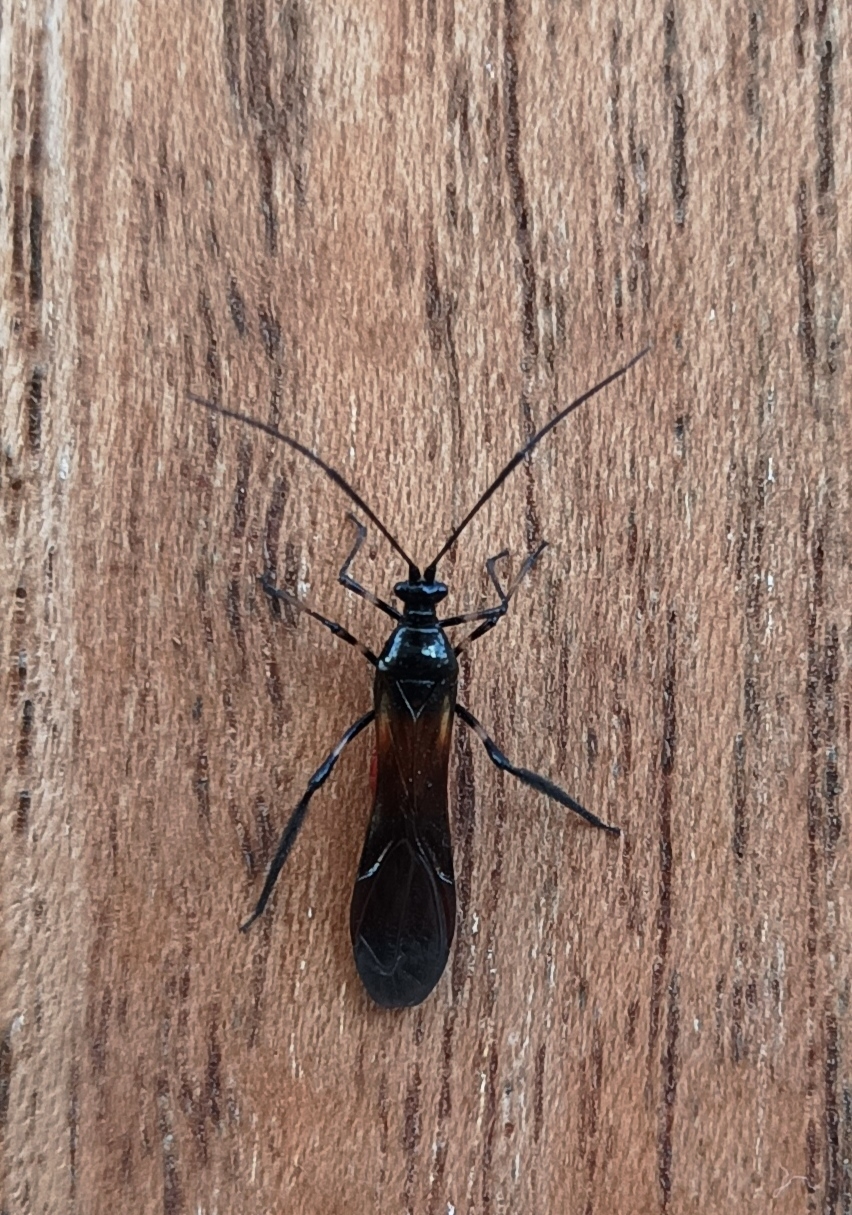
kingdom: Animalia
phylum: Arthropoda
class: Insecta
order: Hemiptera
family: Miridae
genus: Monalonion
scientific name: Monalonion velezangeli
